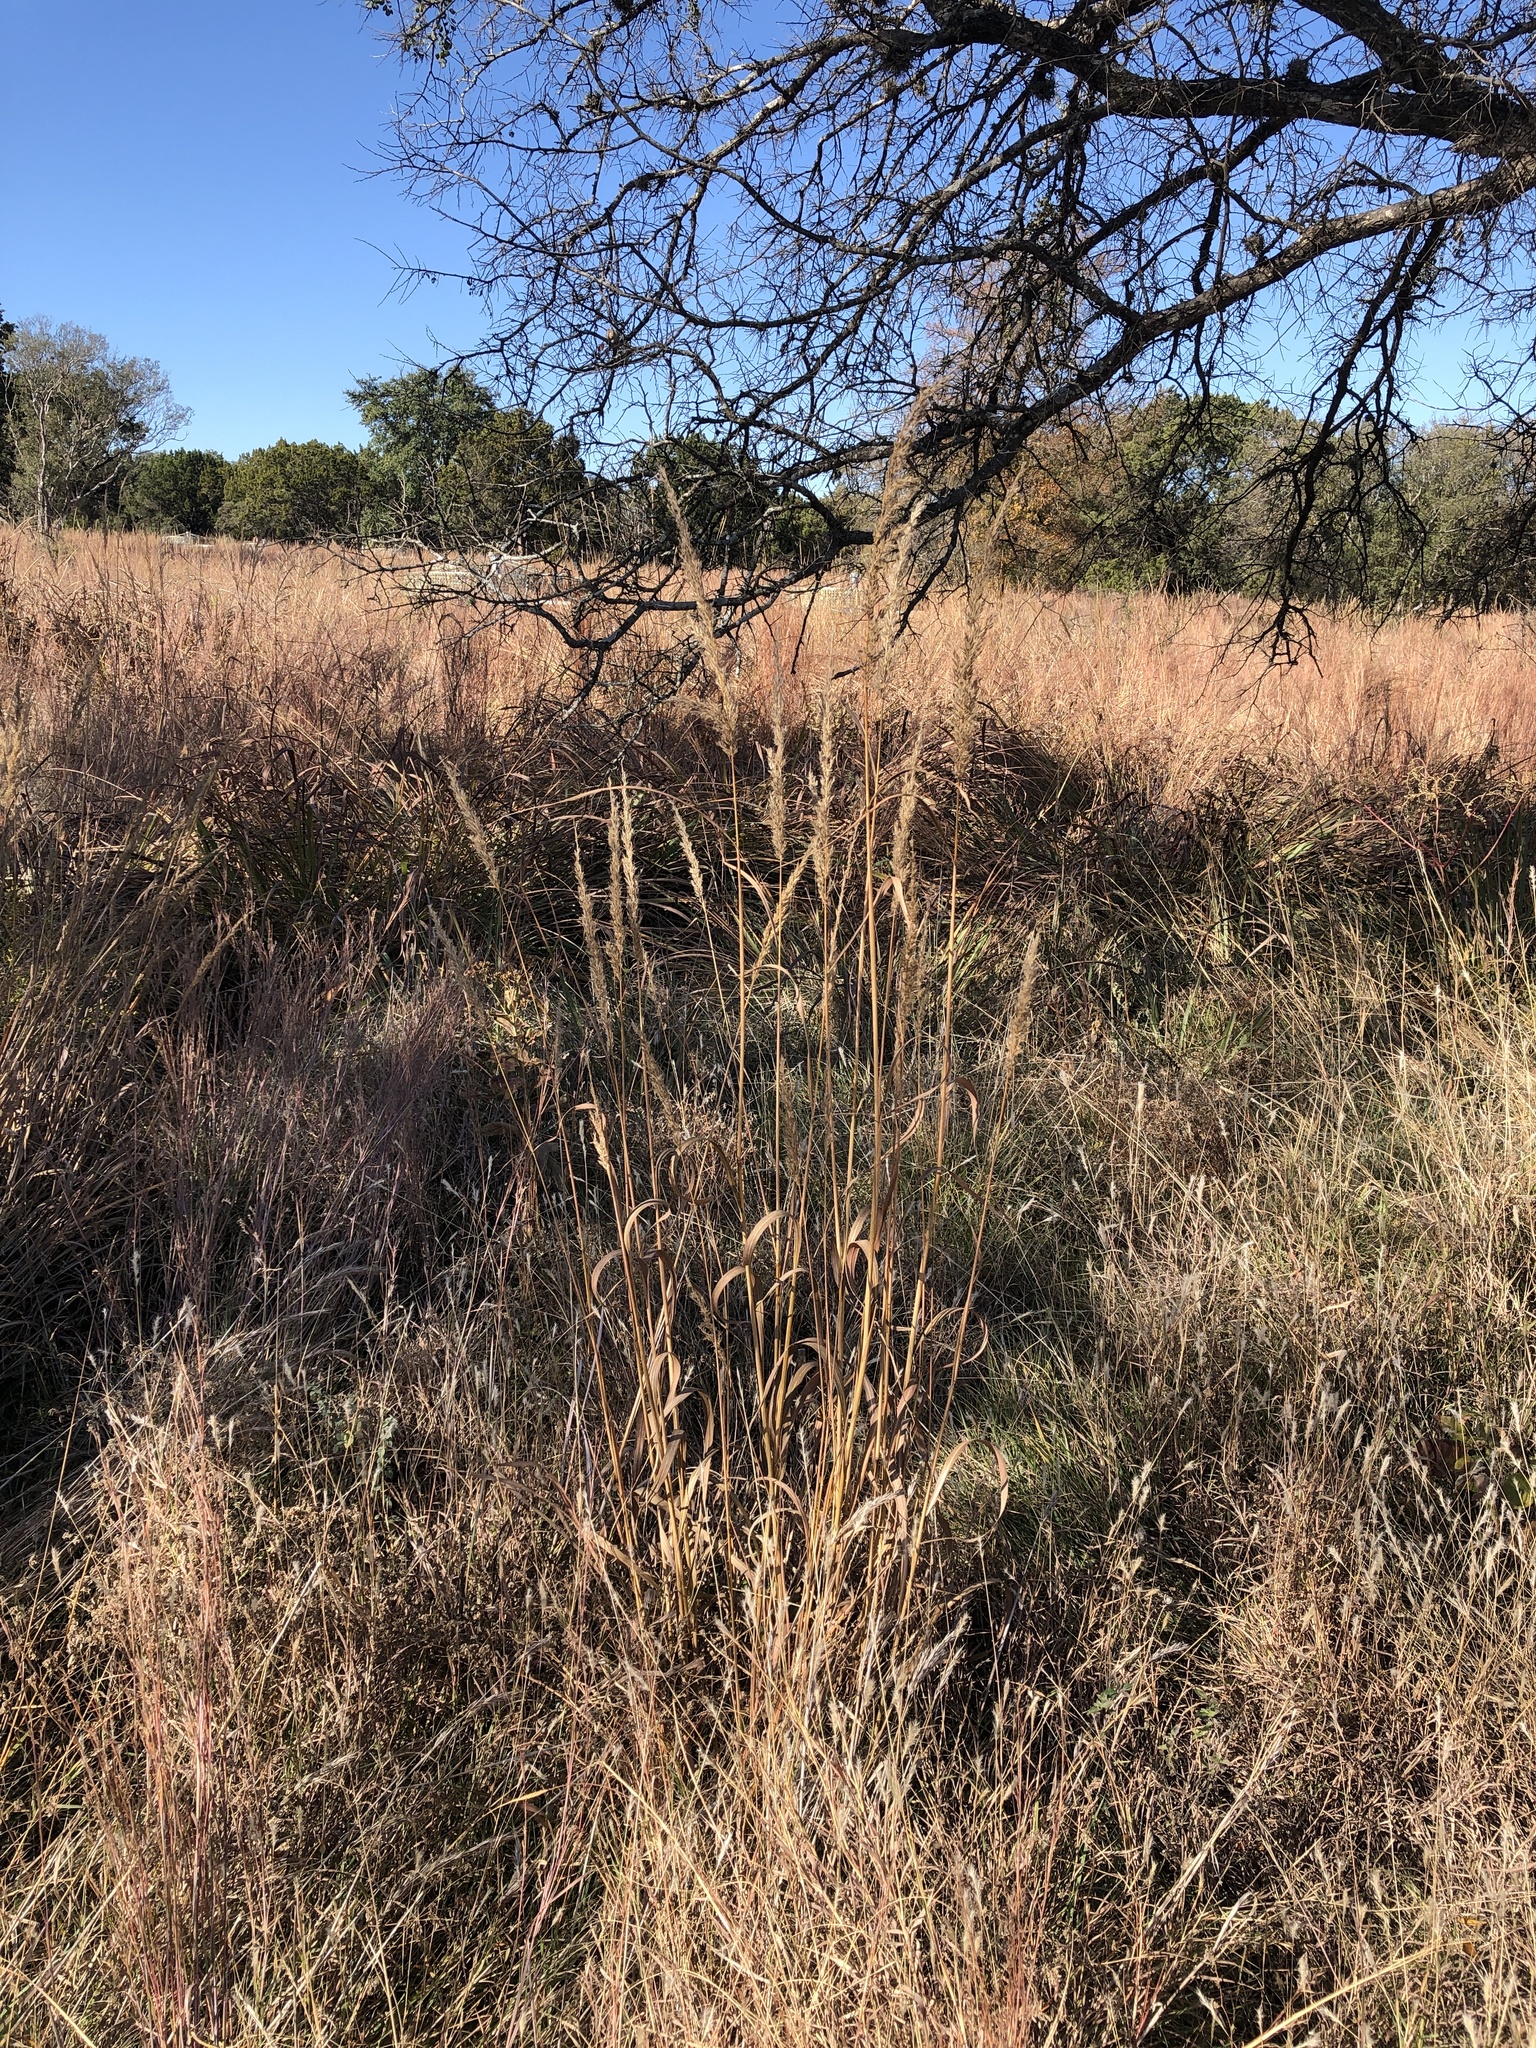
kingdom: Plantae
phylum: Tracheophyta
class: Liliopsida
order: Poales
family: Poaceae
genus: Sorghastrum
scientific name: Sorghastrum nutans
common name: Indian grass
